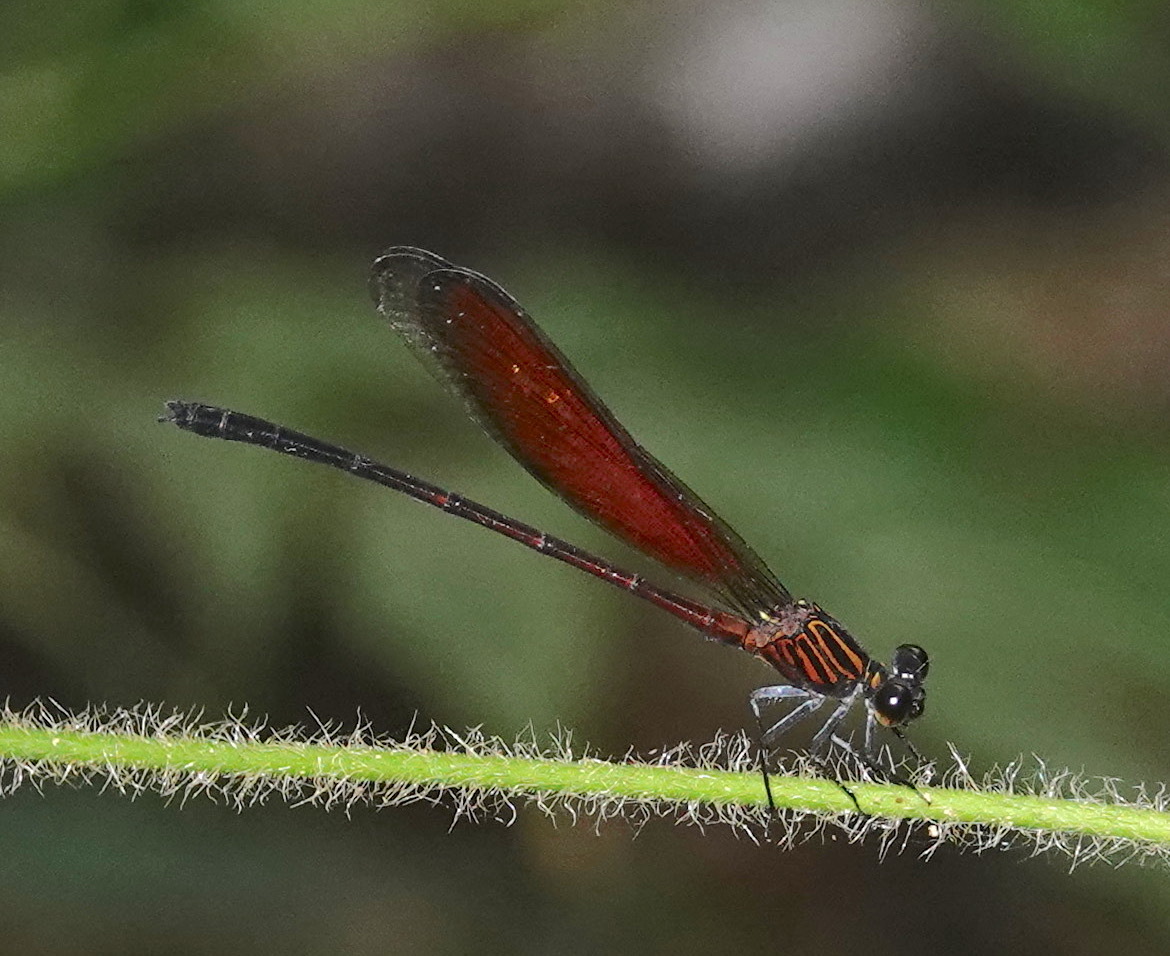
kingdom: Animalia
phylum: Arthropoda
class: Insecta
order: Odonata
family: Euphaeidae
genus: Euphaea
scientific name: Euphaea ochracea
